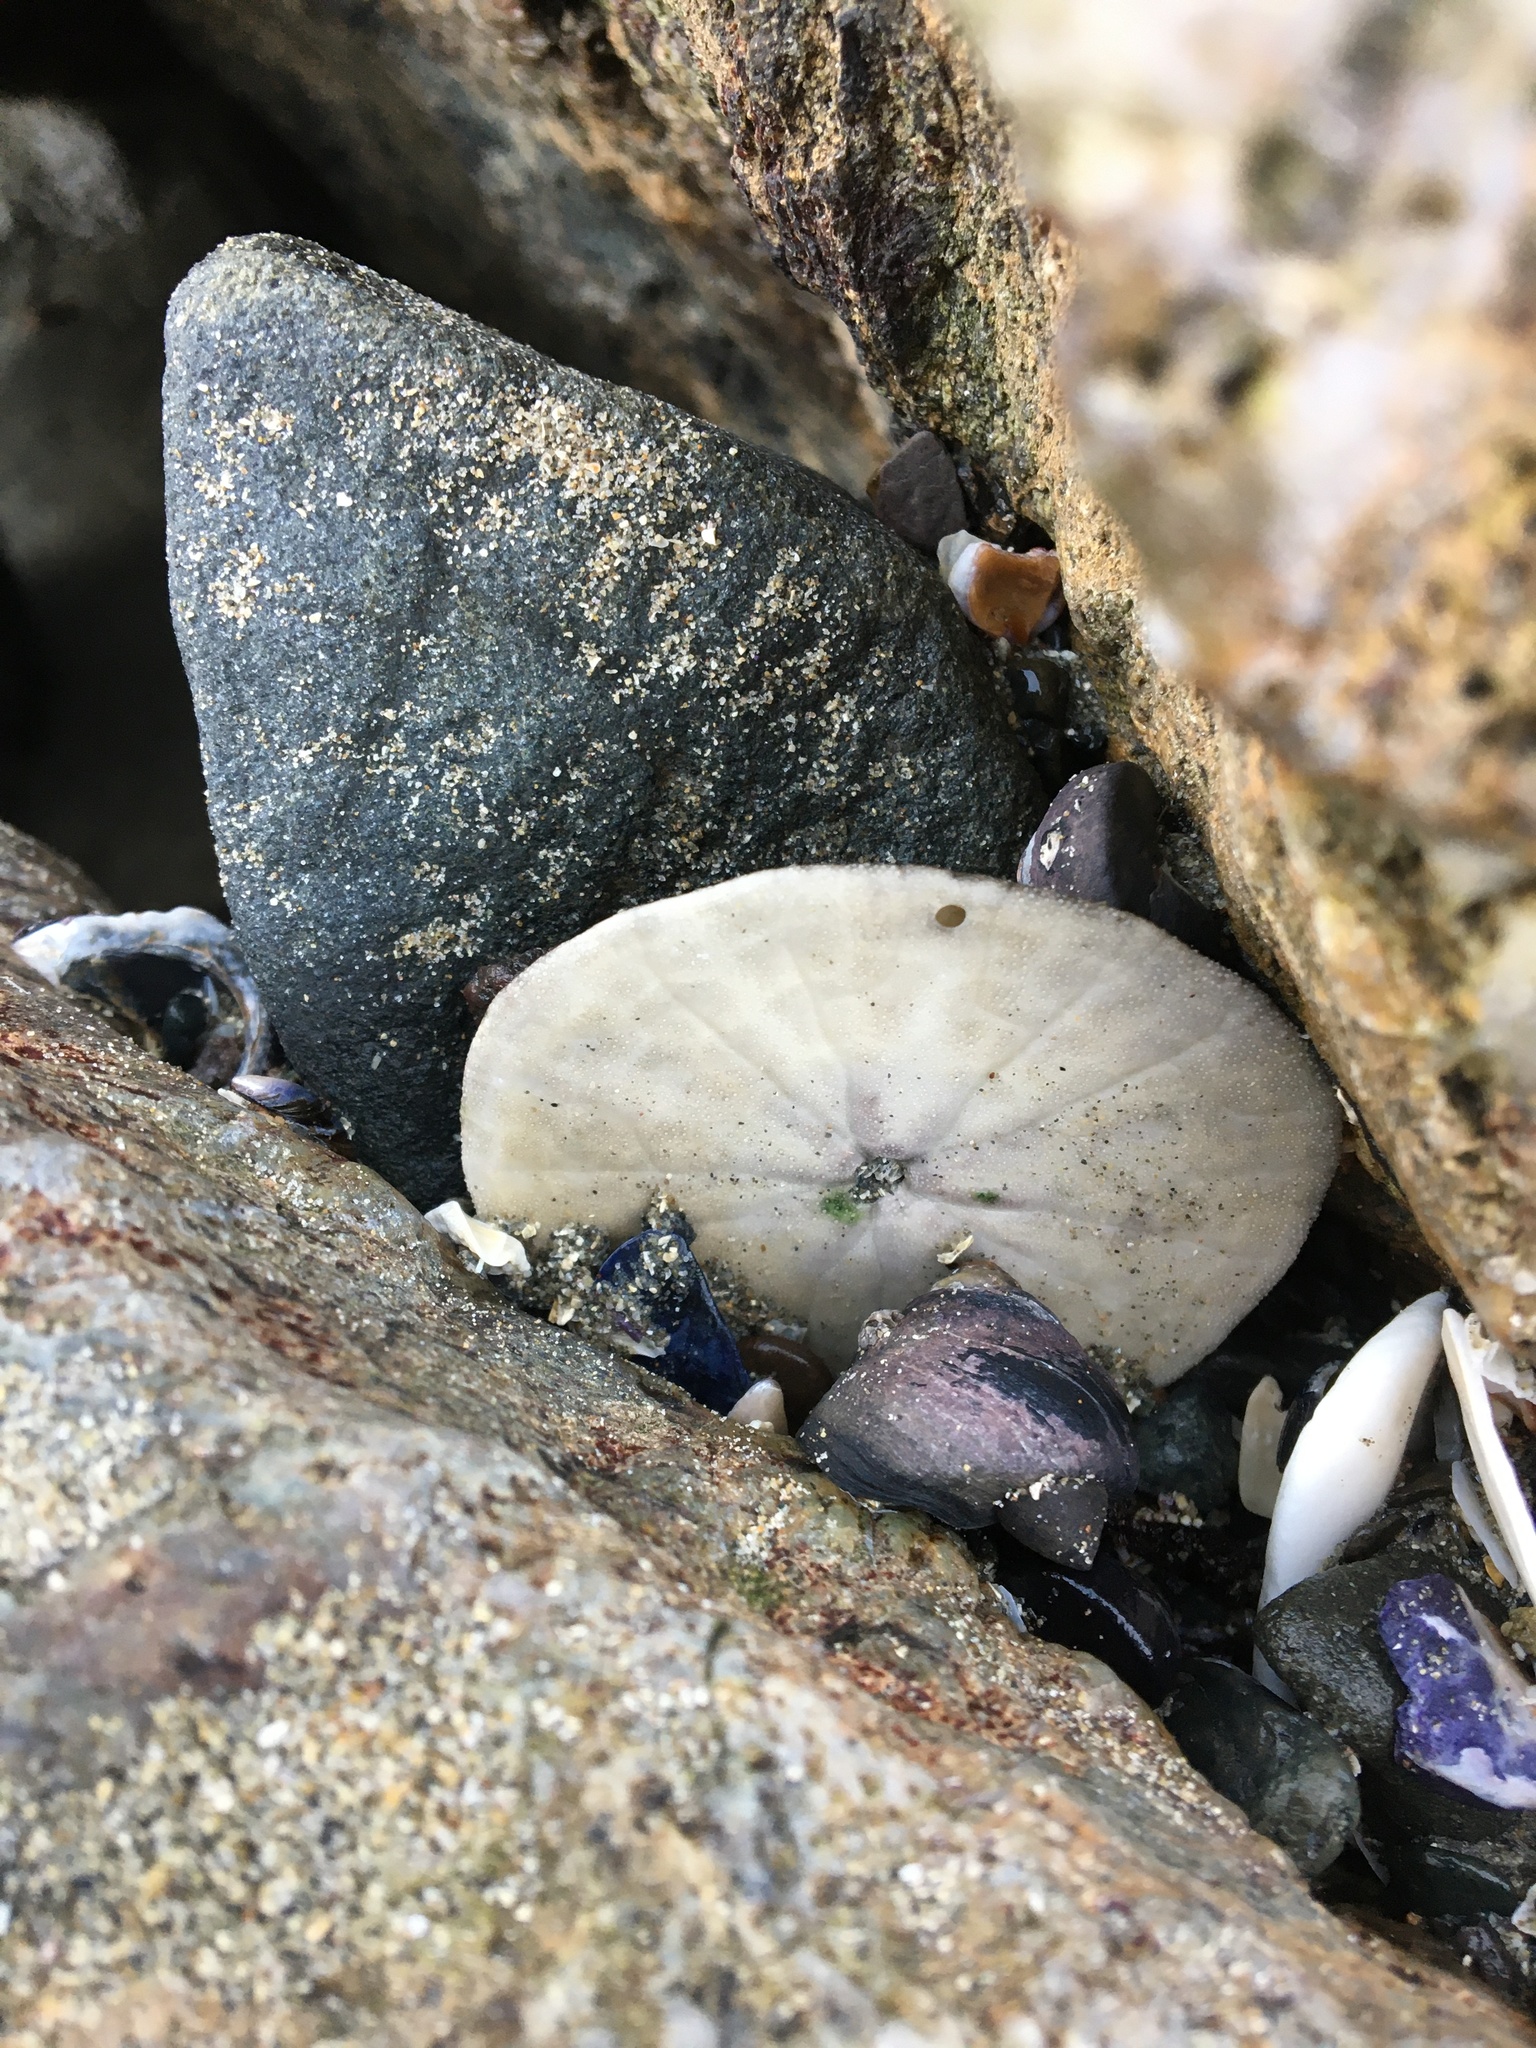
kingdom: Animalia
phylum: Echinodermata
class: Echinoidea
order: Echinolampadacea
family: Dendrasteridae
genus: Dendraster
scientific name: Dendraster excentricus
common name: Eccentric sand dollar sea urchin
